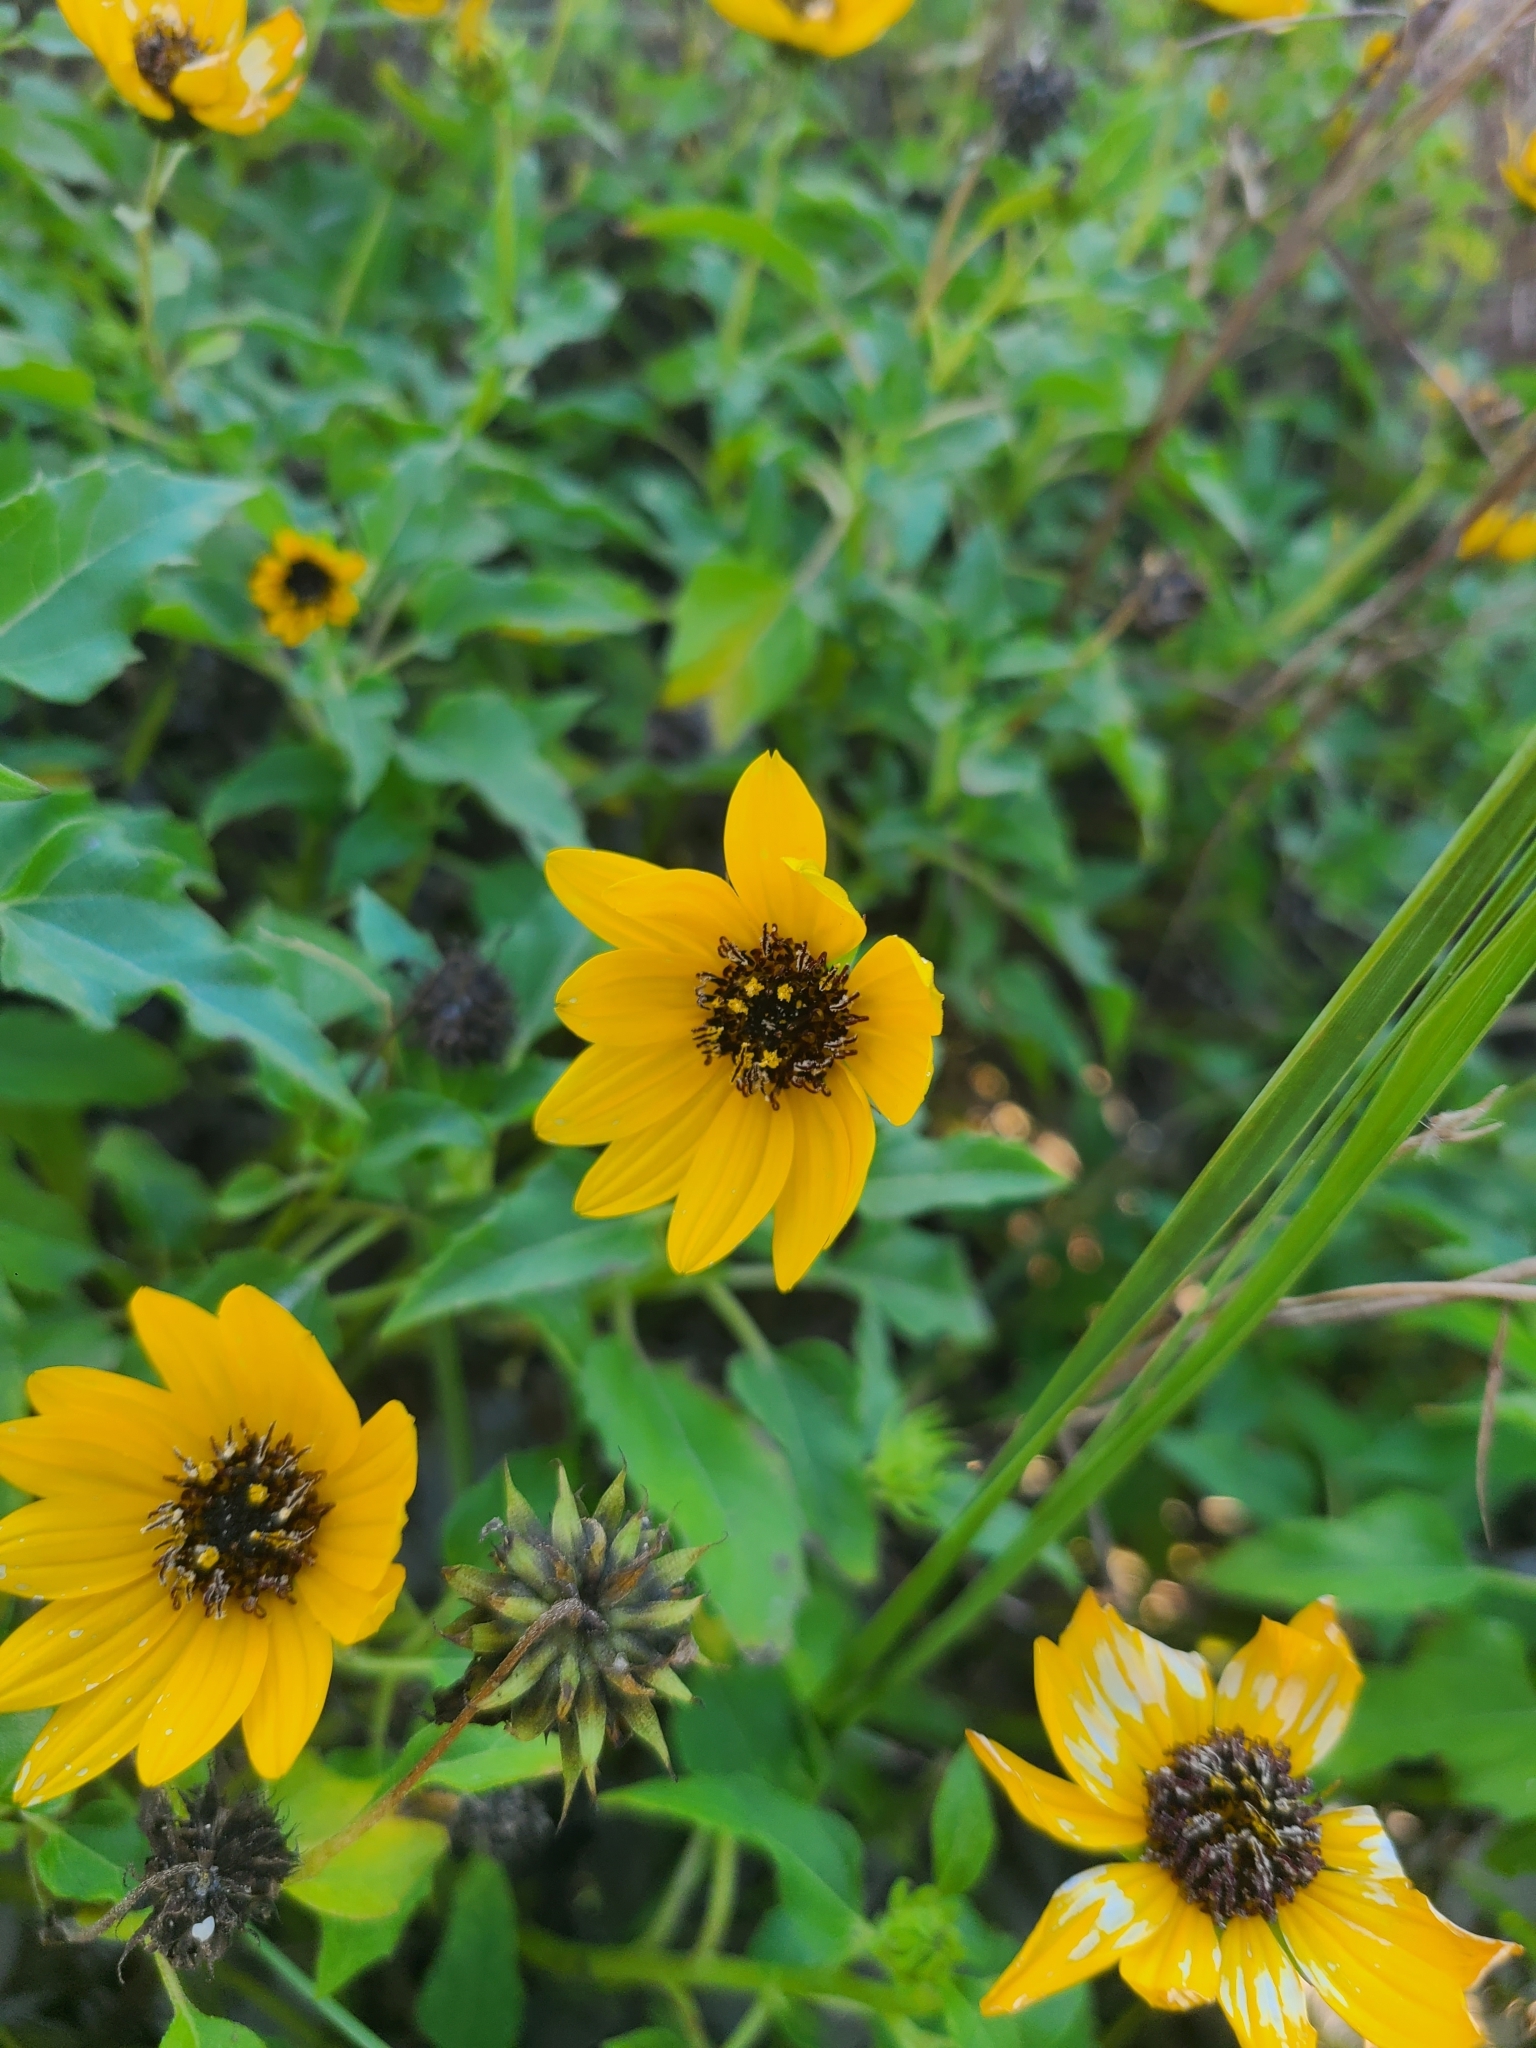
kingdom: Plantae
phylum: Tracheophyta
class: Magnoliopsida
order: Asterales
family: Asteraceae
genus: Helianthus
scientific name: Helianthus debilis
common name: Weak sunflower
